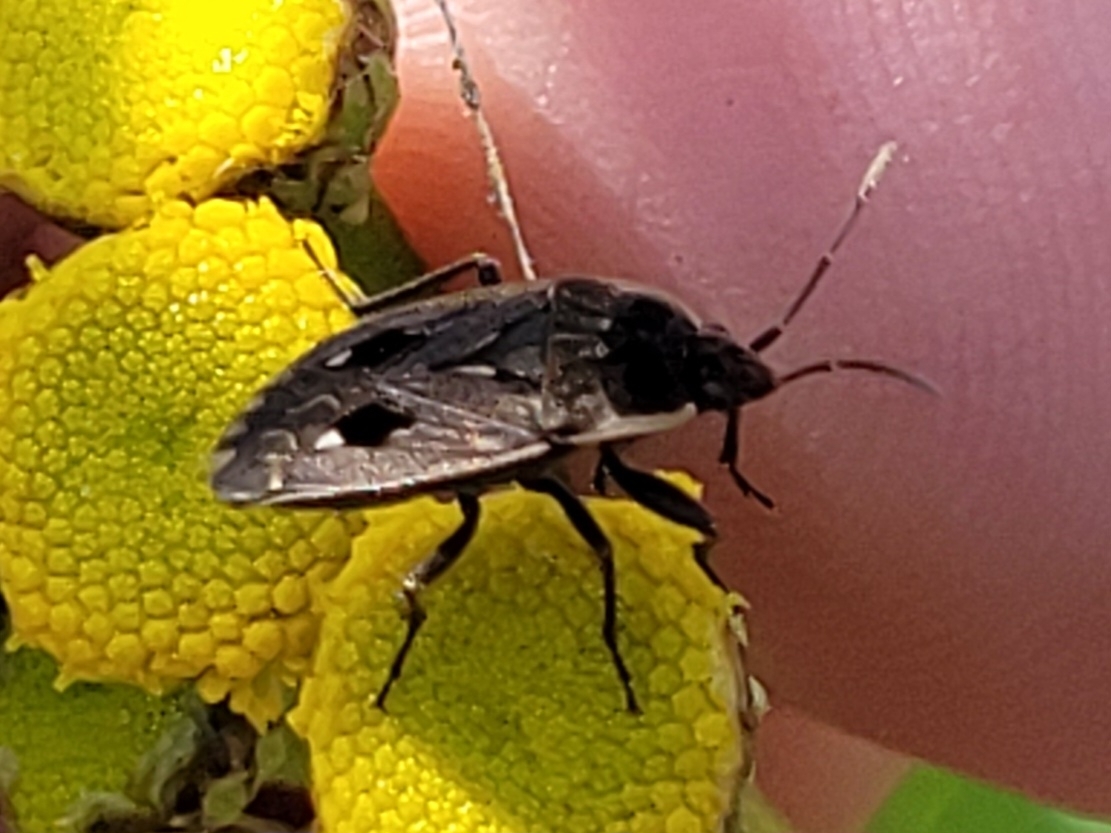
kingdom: Animalia
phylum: Arthropoda
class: Insecta
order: Hemiptera
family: Rhyparochromidae
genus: Graptopeltus
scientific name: Graptopeltus lynceus
